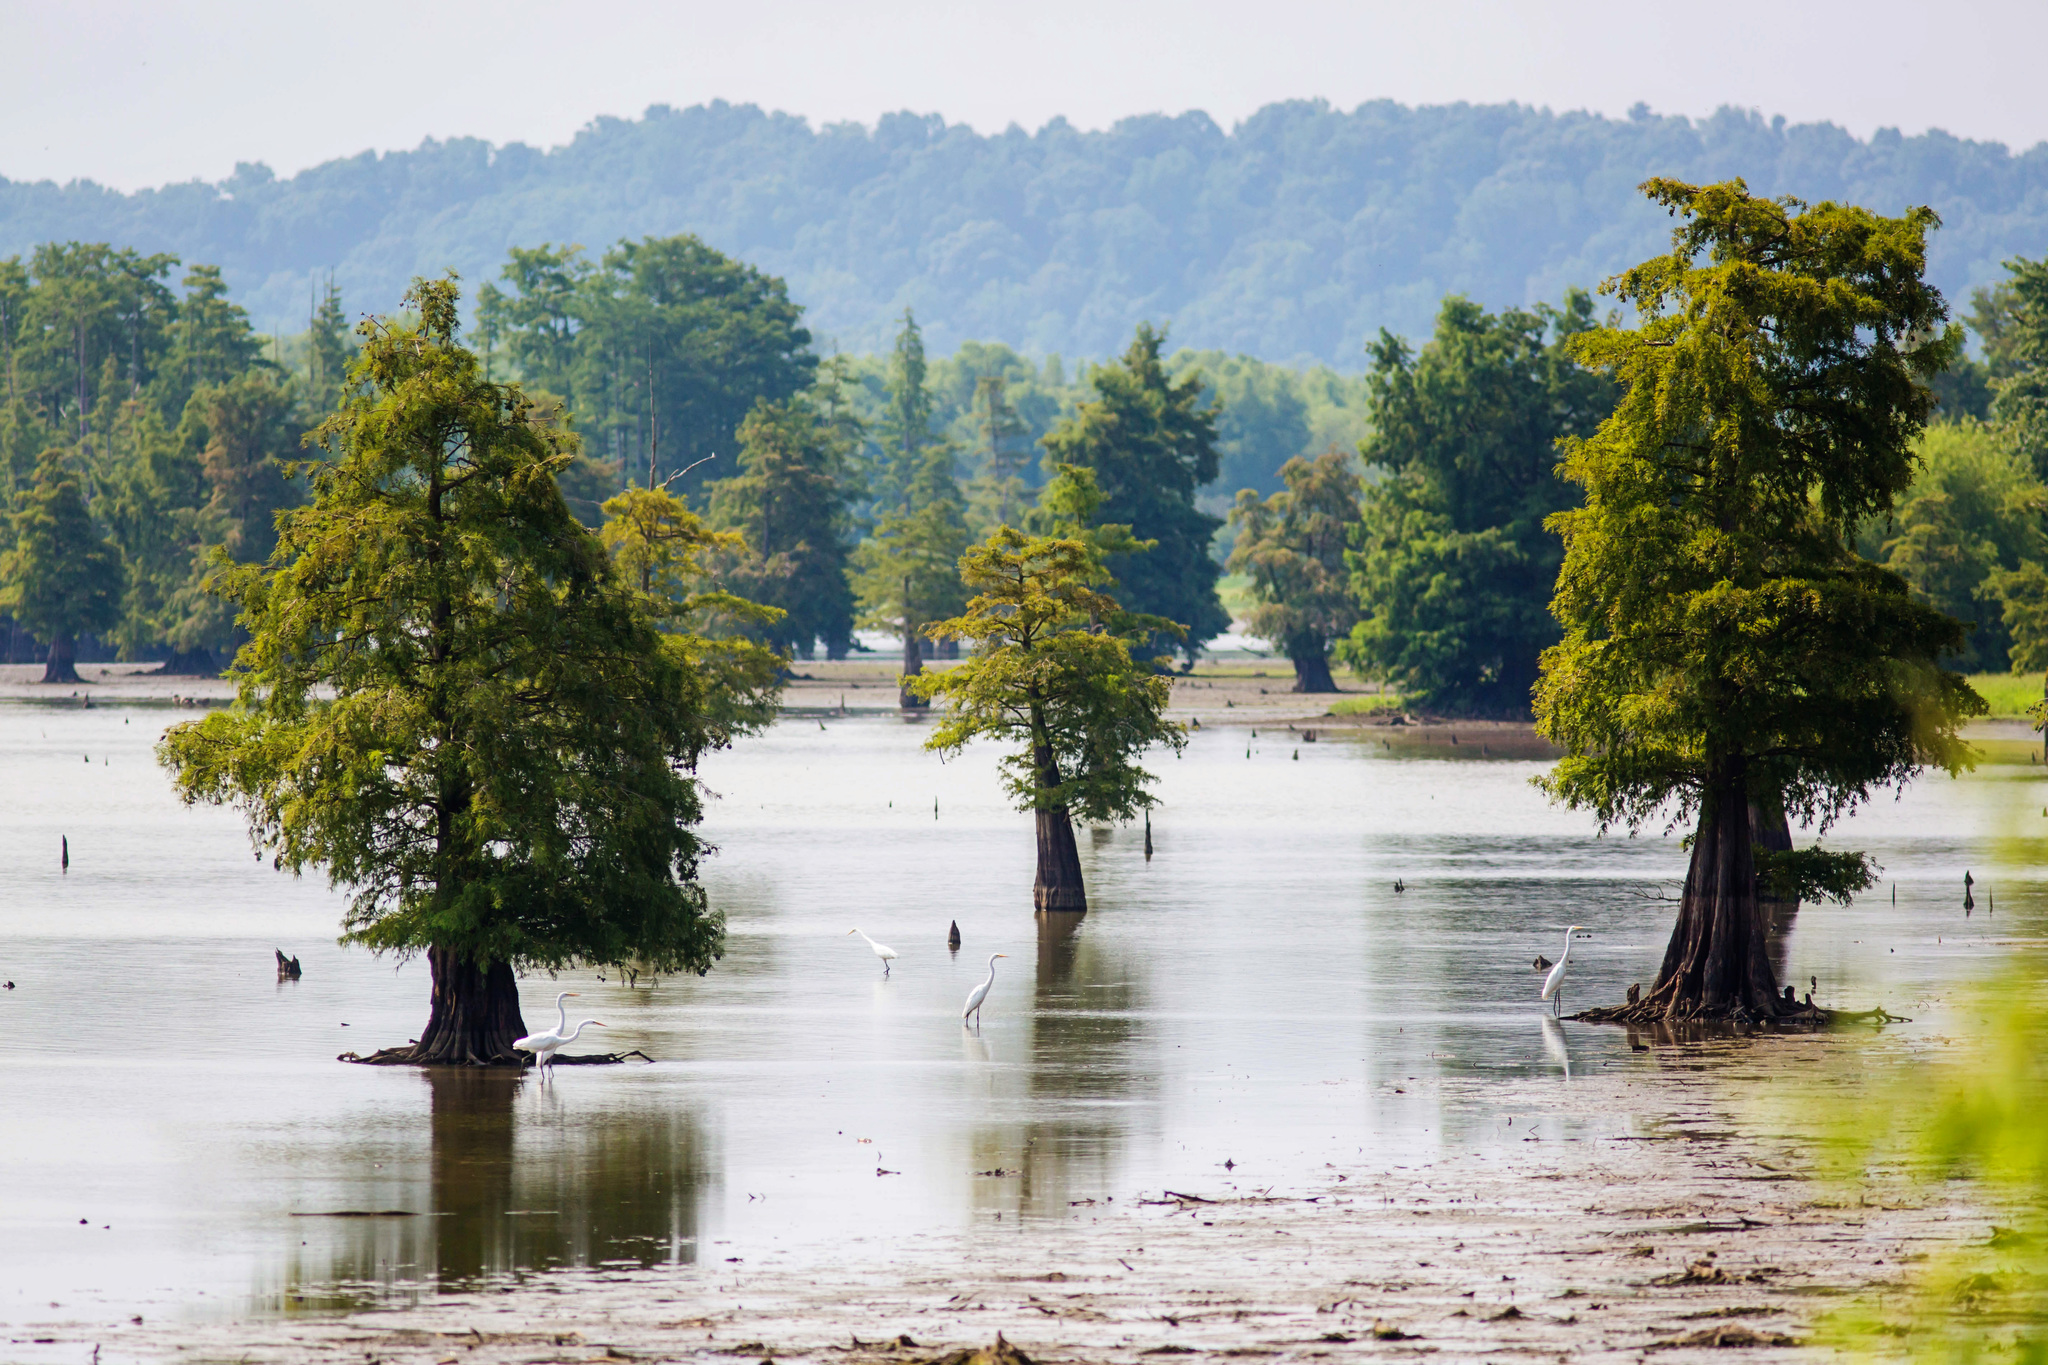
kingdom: Animalia
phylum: Chordata
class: Aves
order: Pelecaniformes
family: Ardeidae
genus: Ardea
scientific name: Ardea alba
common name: Great egret
